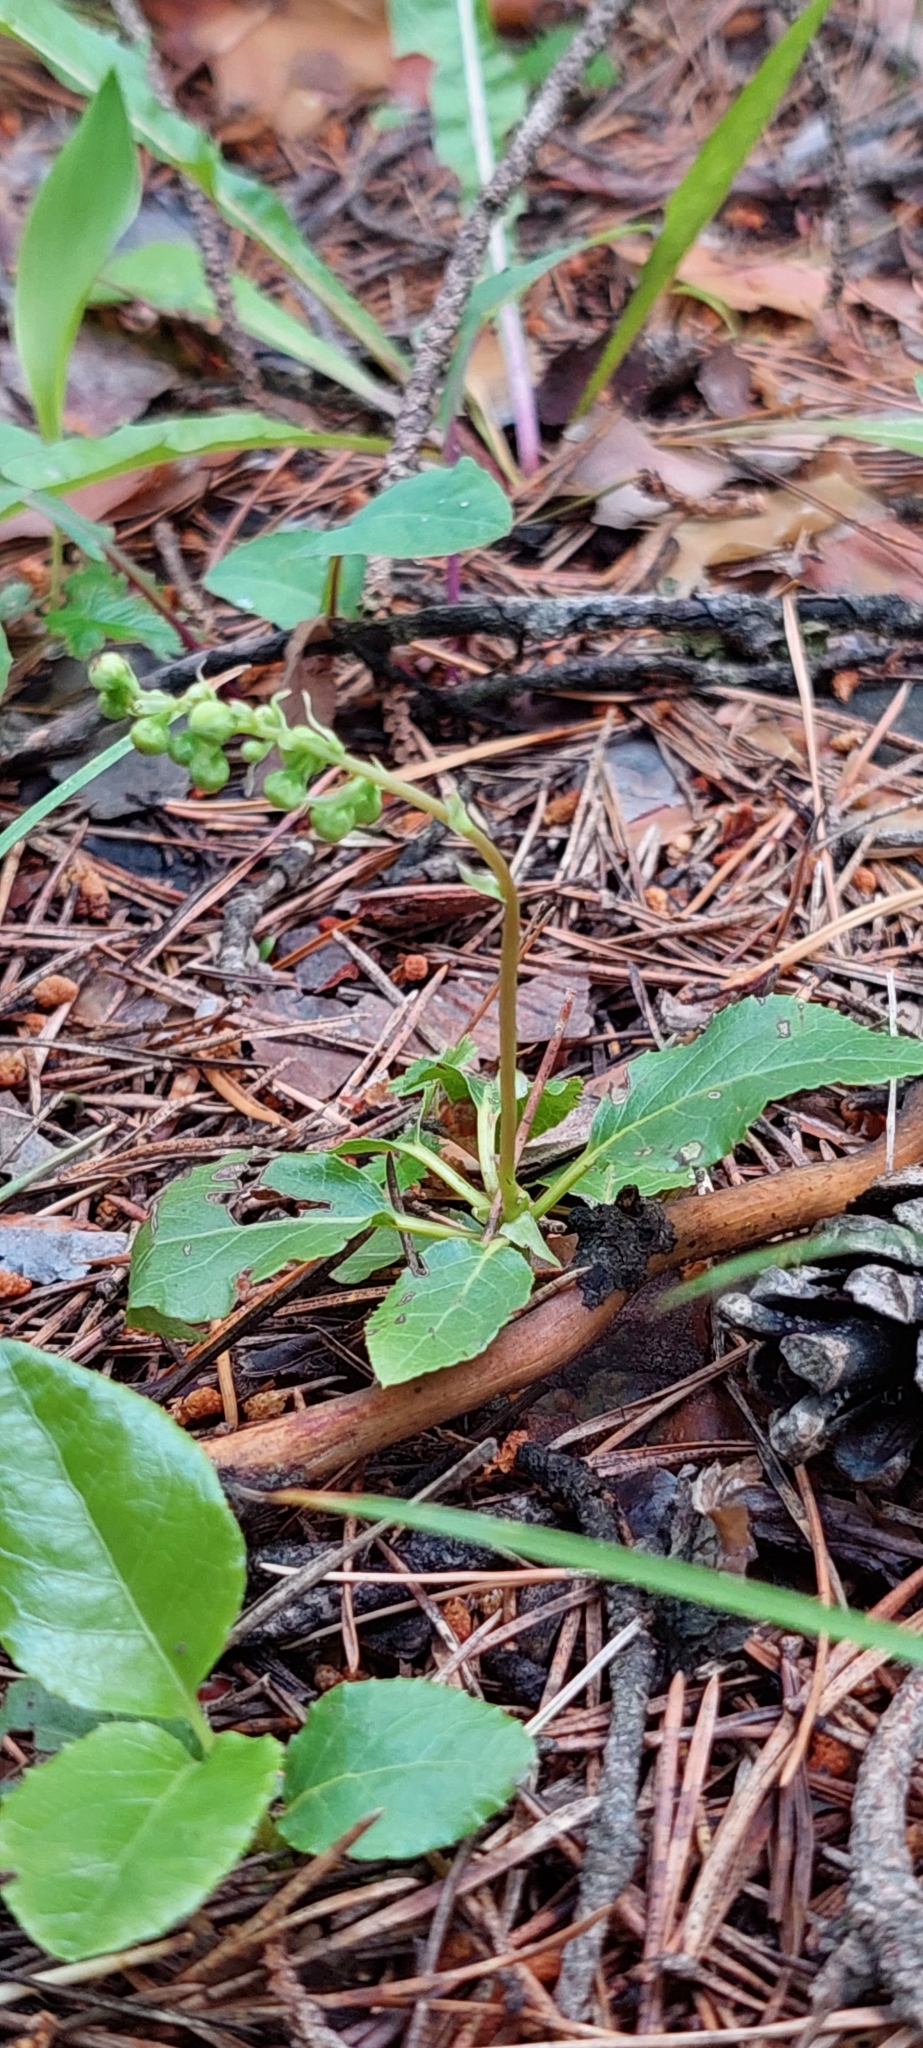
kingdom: Plantae
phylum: Tracheophyta
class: Magnoliopsida
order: Ericales
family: Ericaceae
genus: Orthilia
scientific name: Orthilia secunda
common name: One-sided orthilia
